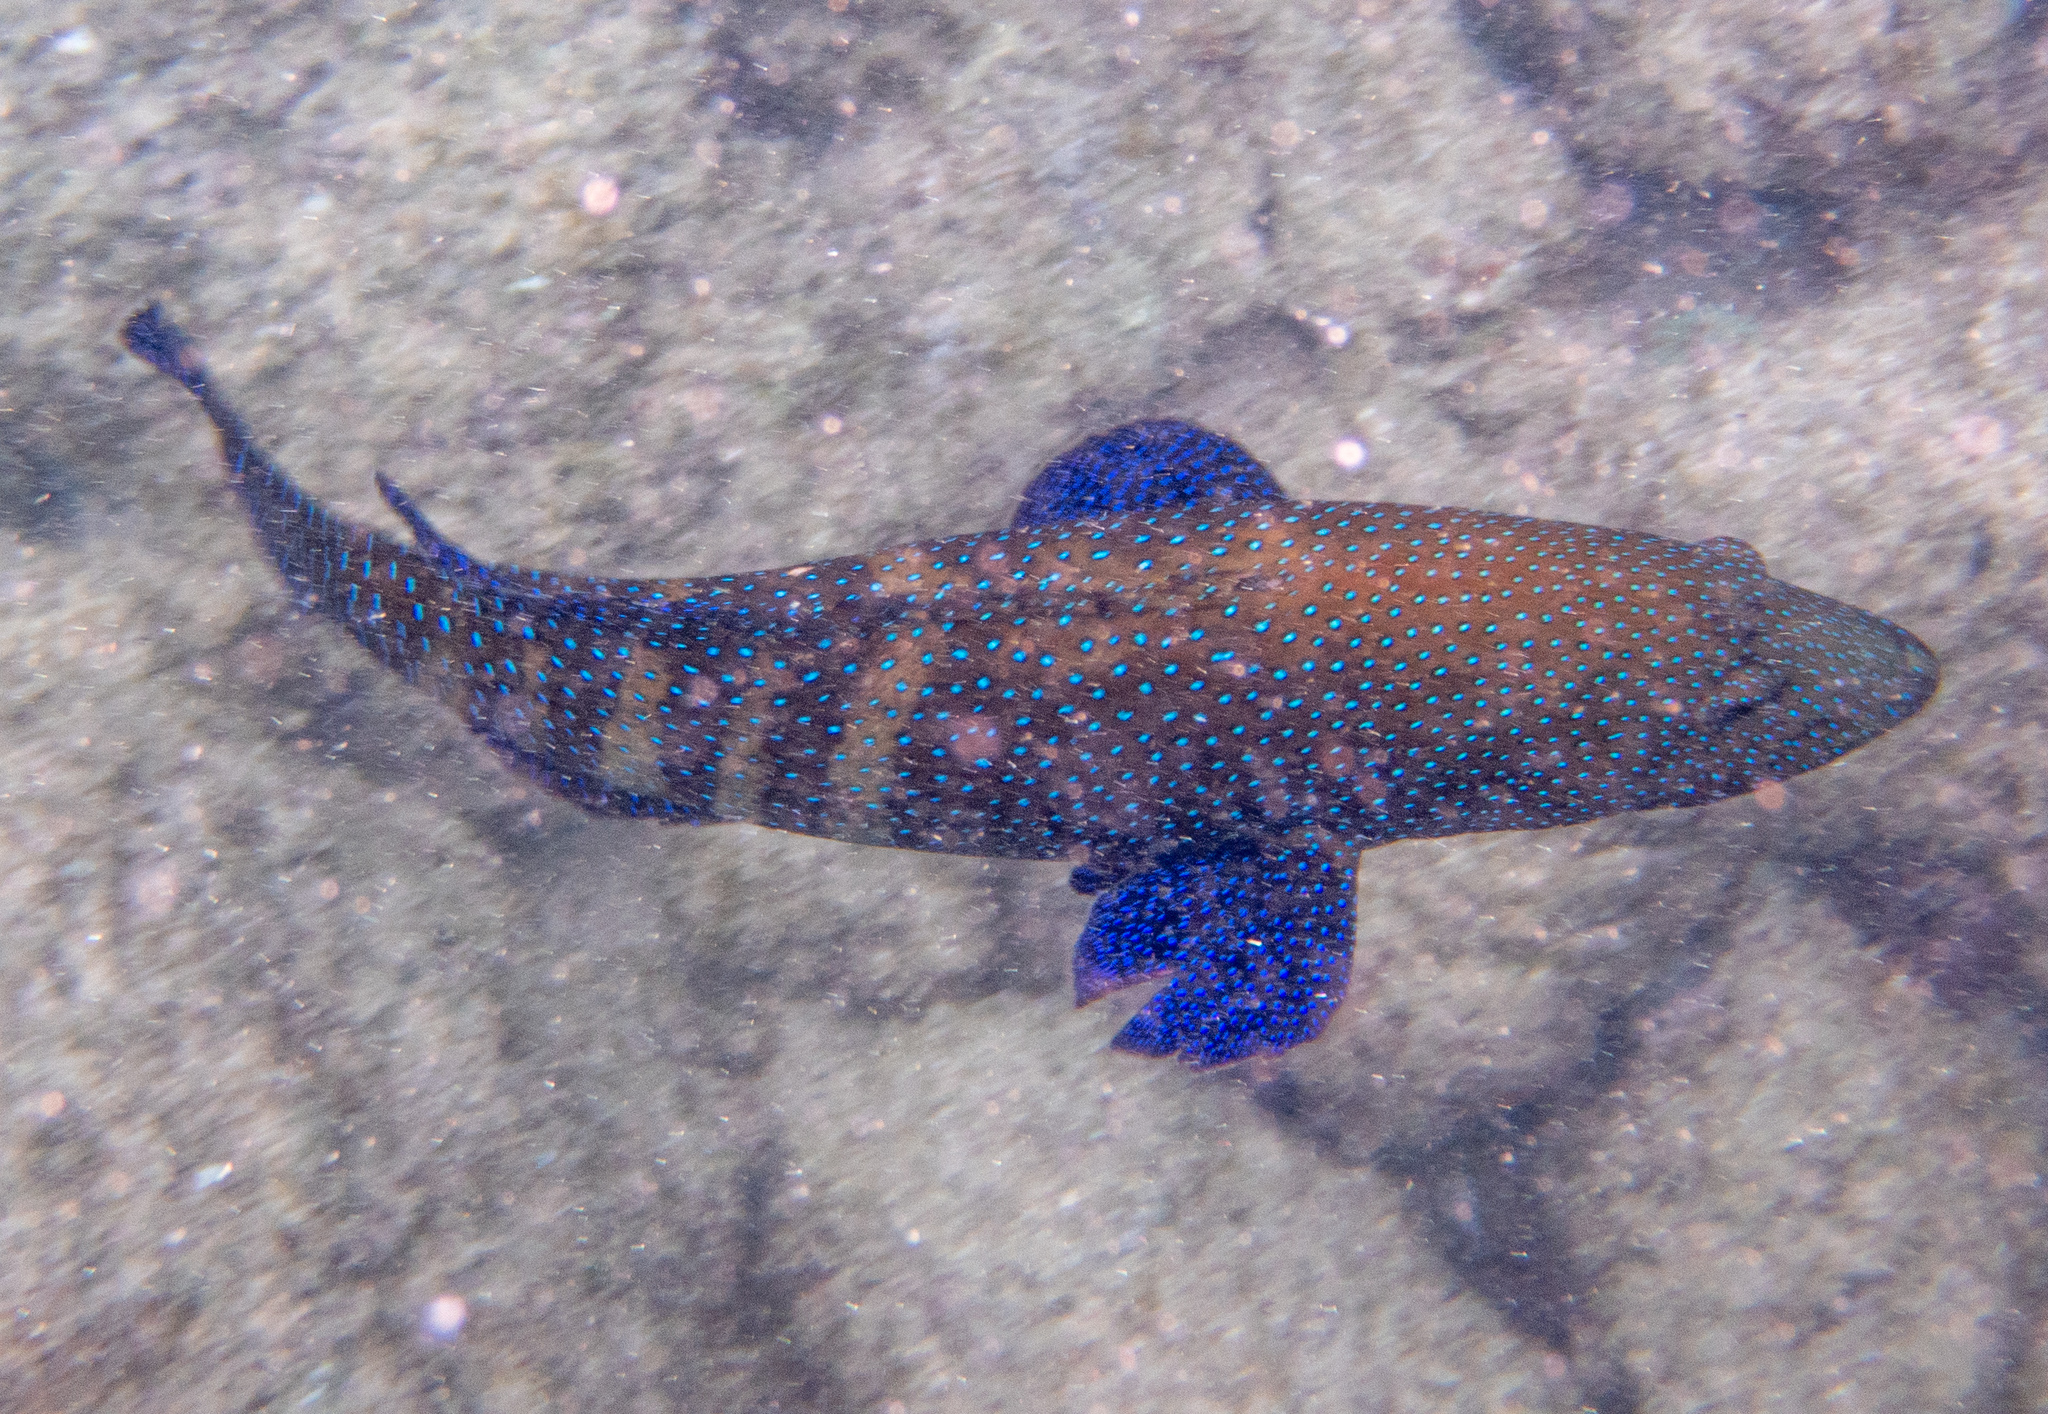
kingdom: Animalia
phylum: Chordata
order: Perciformes
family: Serranidae
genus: Cephalopholis
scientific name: Cephalopholis argus
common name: Peacock grouper
